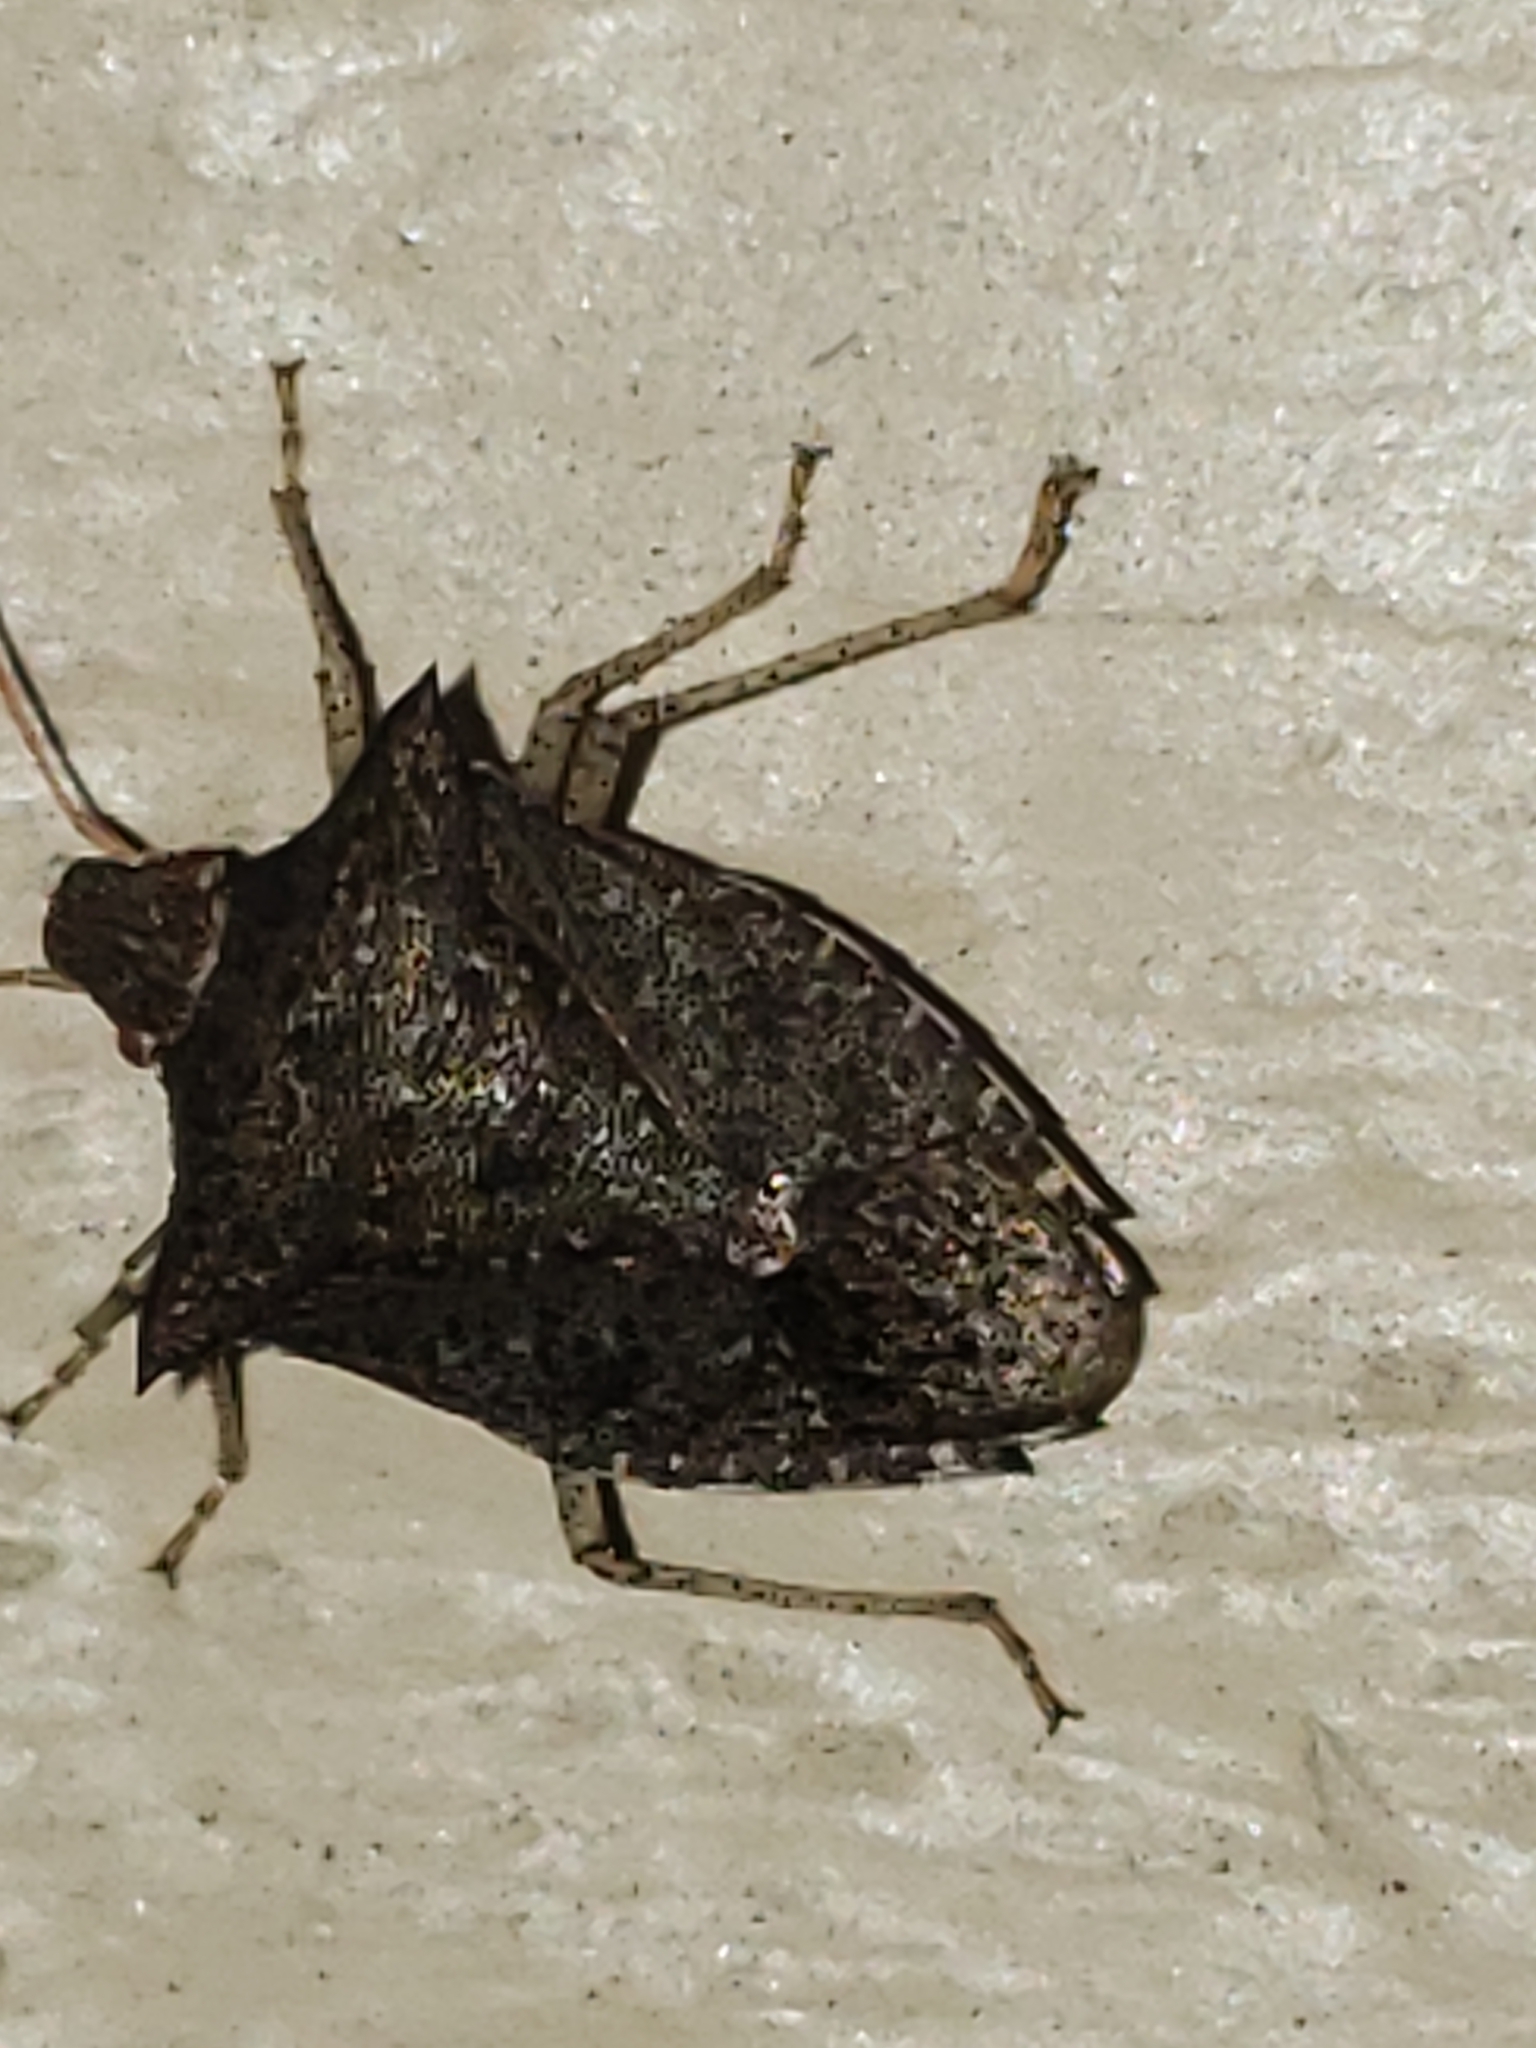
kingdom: Animalia
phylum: Arthropoda
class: Insecta
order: Hemiptera
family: Pentatomidae
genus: Euschistus
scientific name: Euschistus tristigmus
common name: Dusky stink bug
